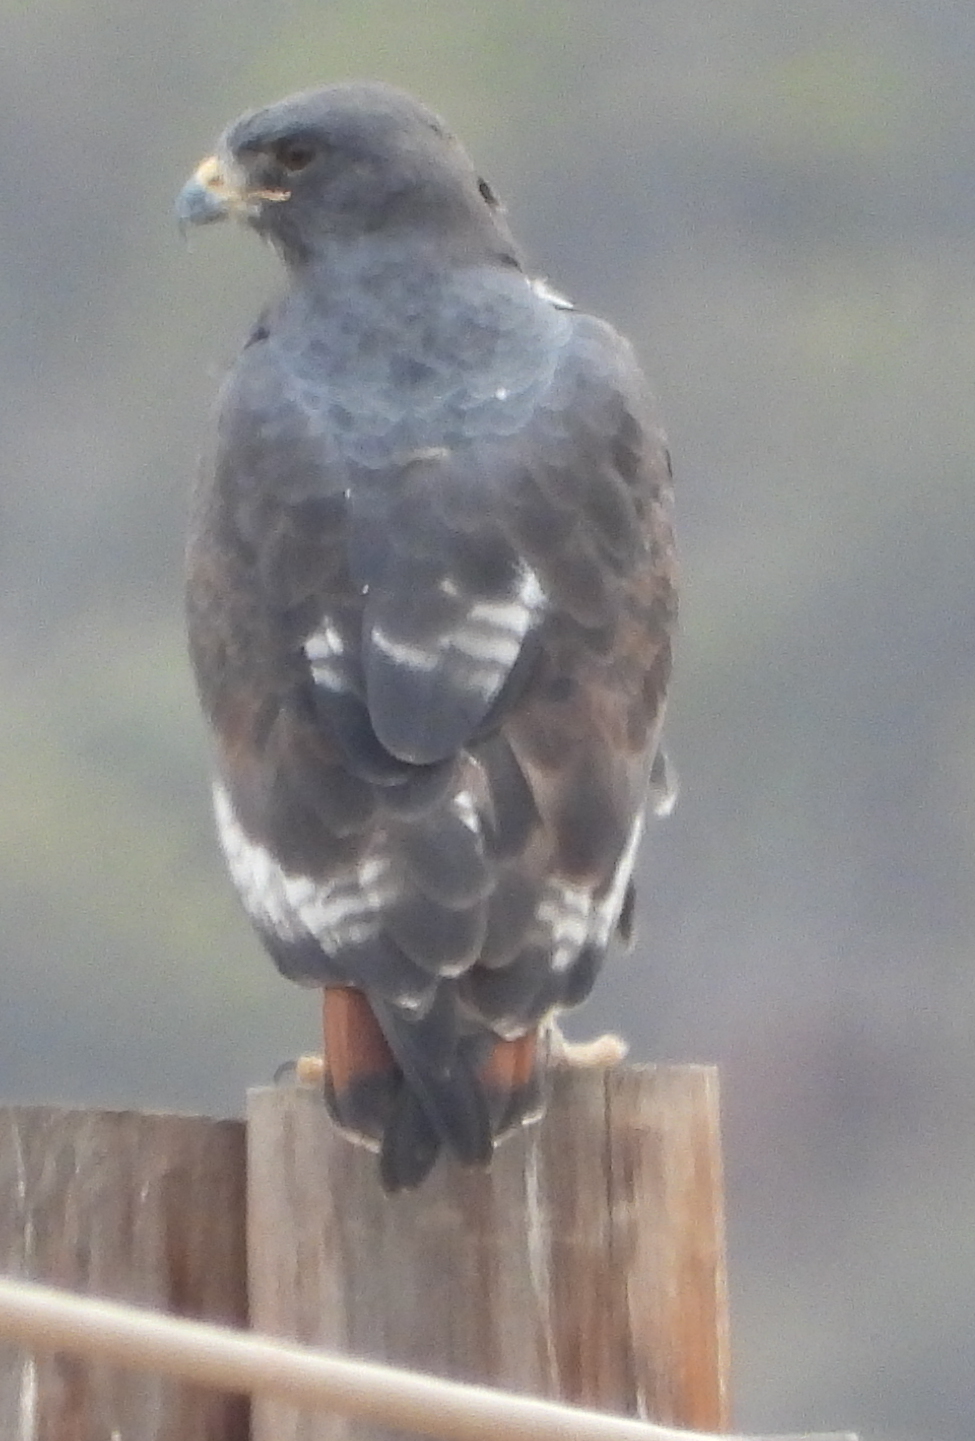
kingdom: Animalia
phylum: Chordata
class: Aves
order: Accipitriformes
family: Accipitridae
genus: Buteo
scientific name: Buteo rufofuscus
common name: Jackal buzzard
